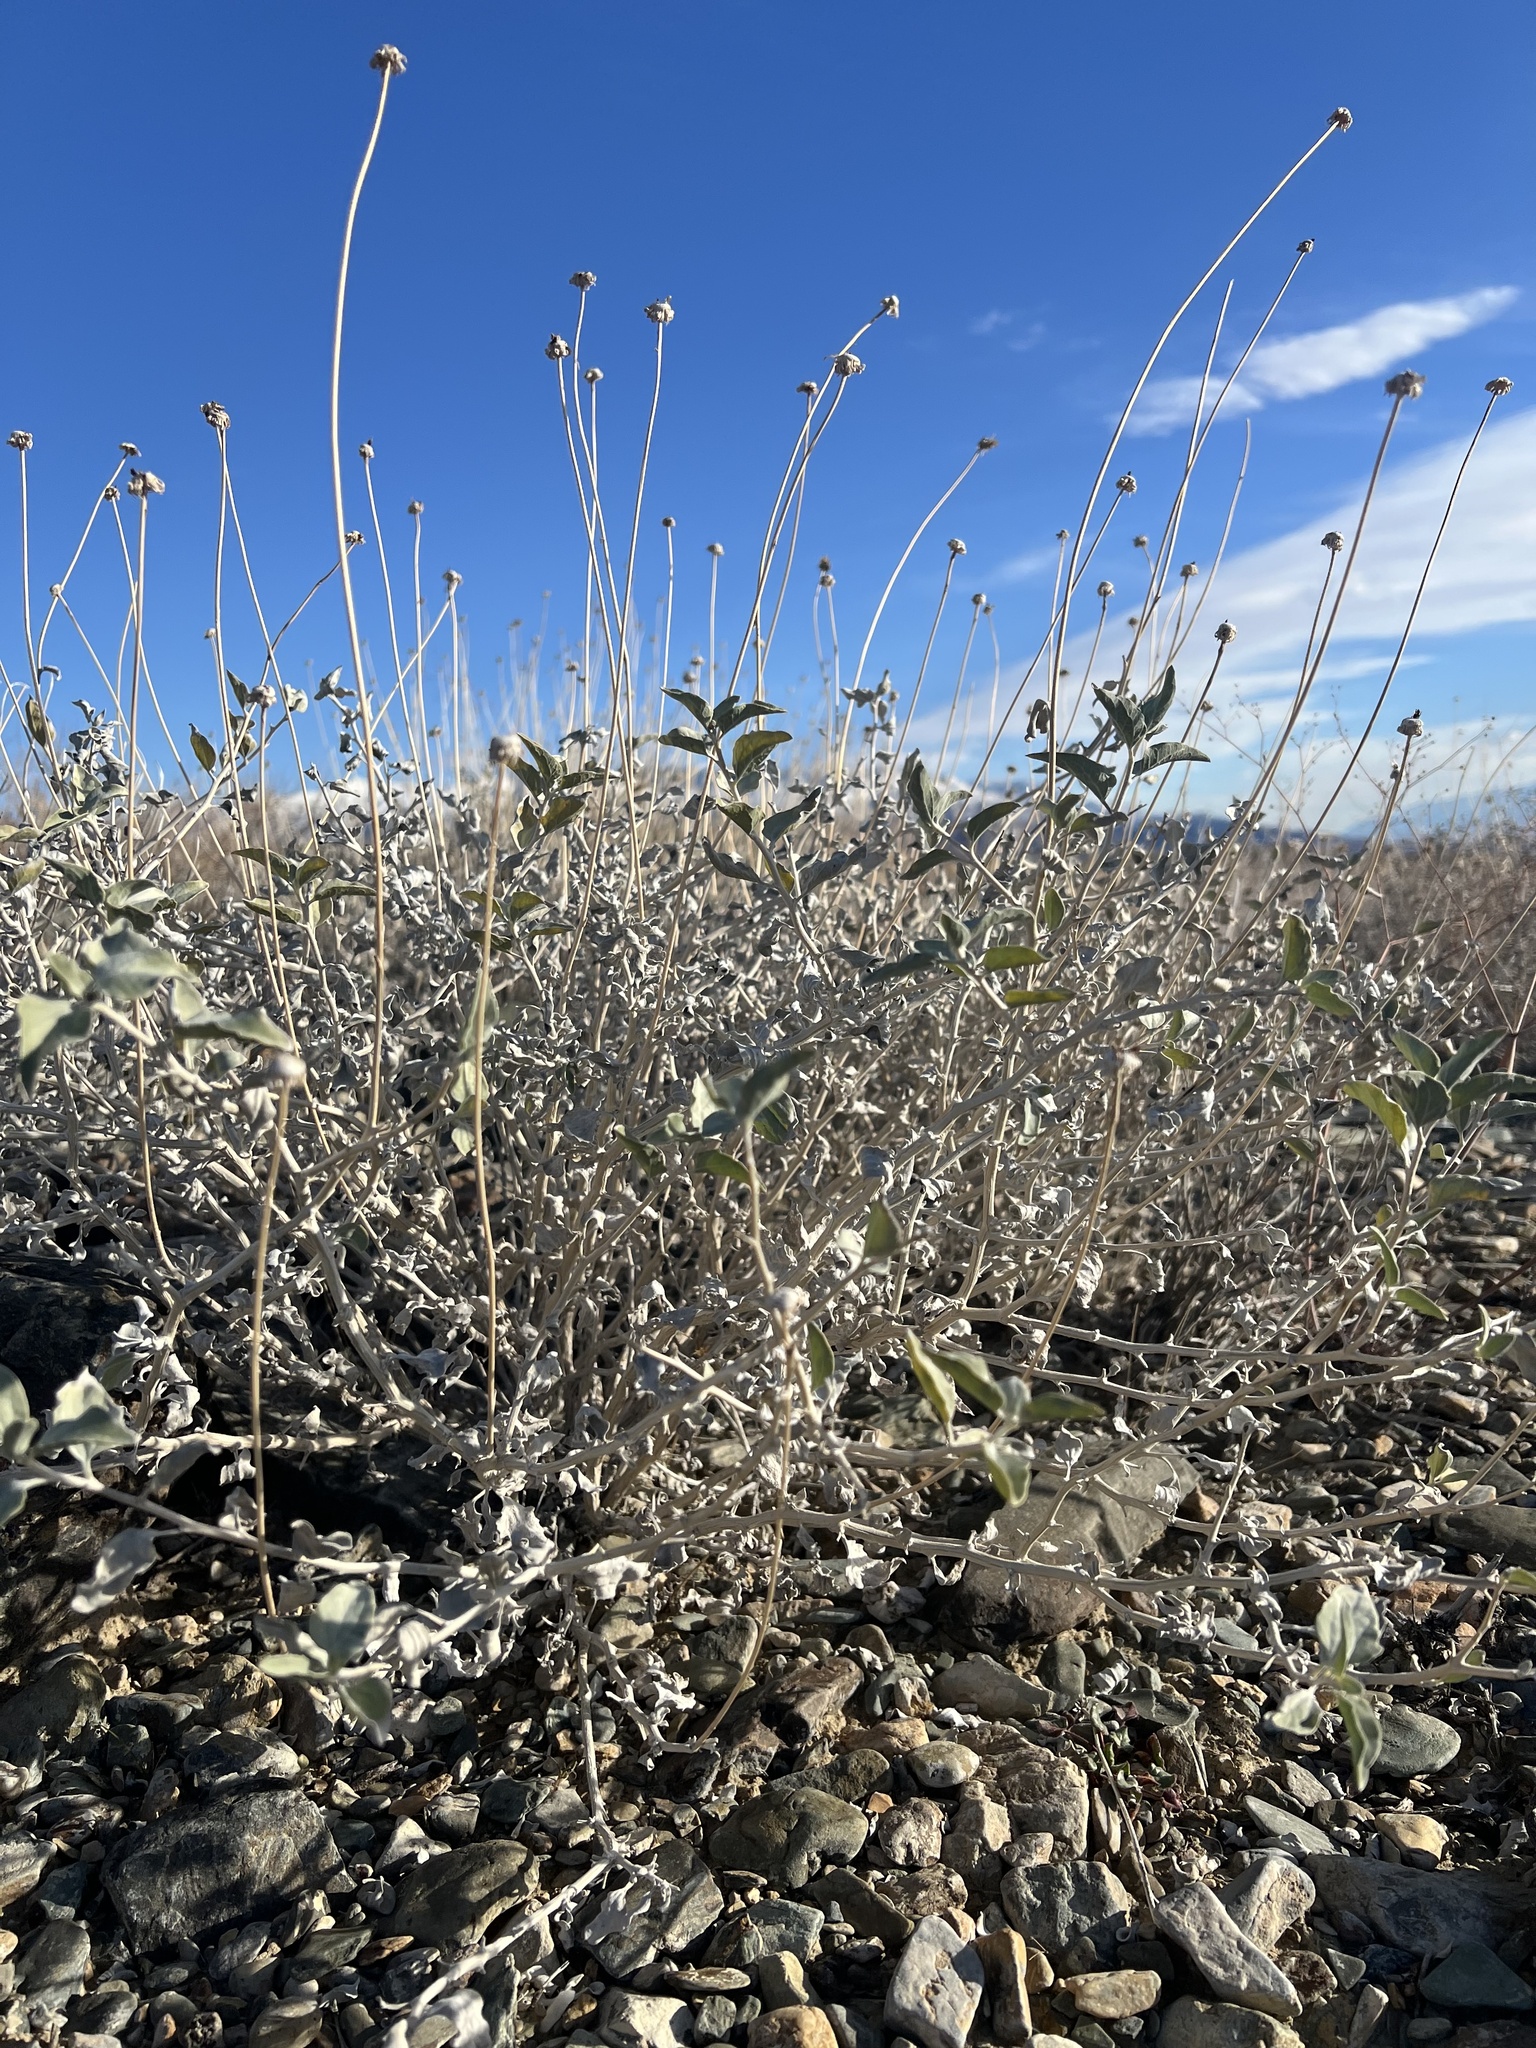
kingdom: Plantae
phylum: Tracheophyta
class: Magnoliopsida
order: Asterales
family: Asteraceae
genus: Encelia
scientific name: Encelia actoni
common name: Acton encelia
